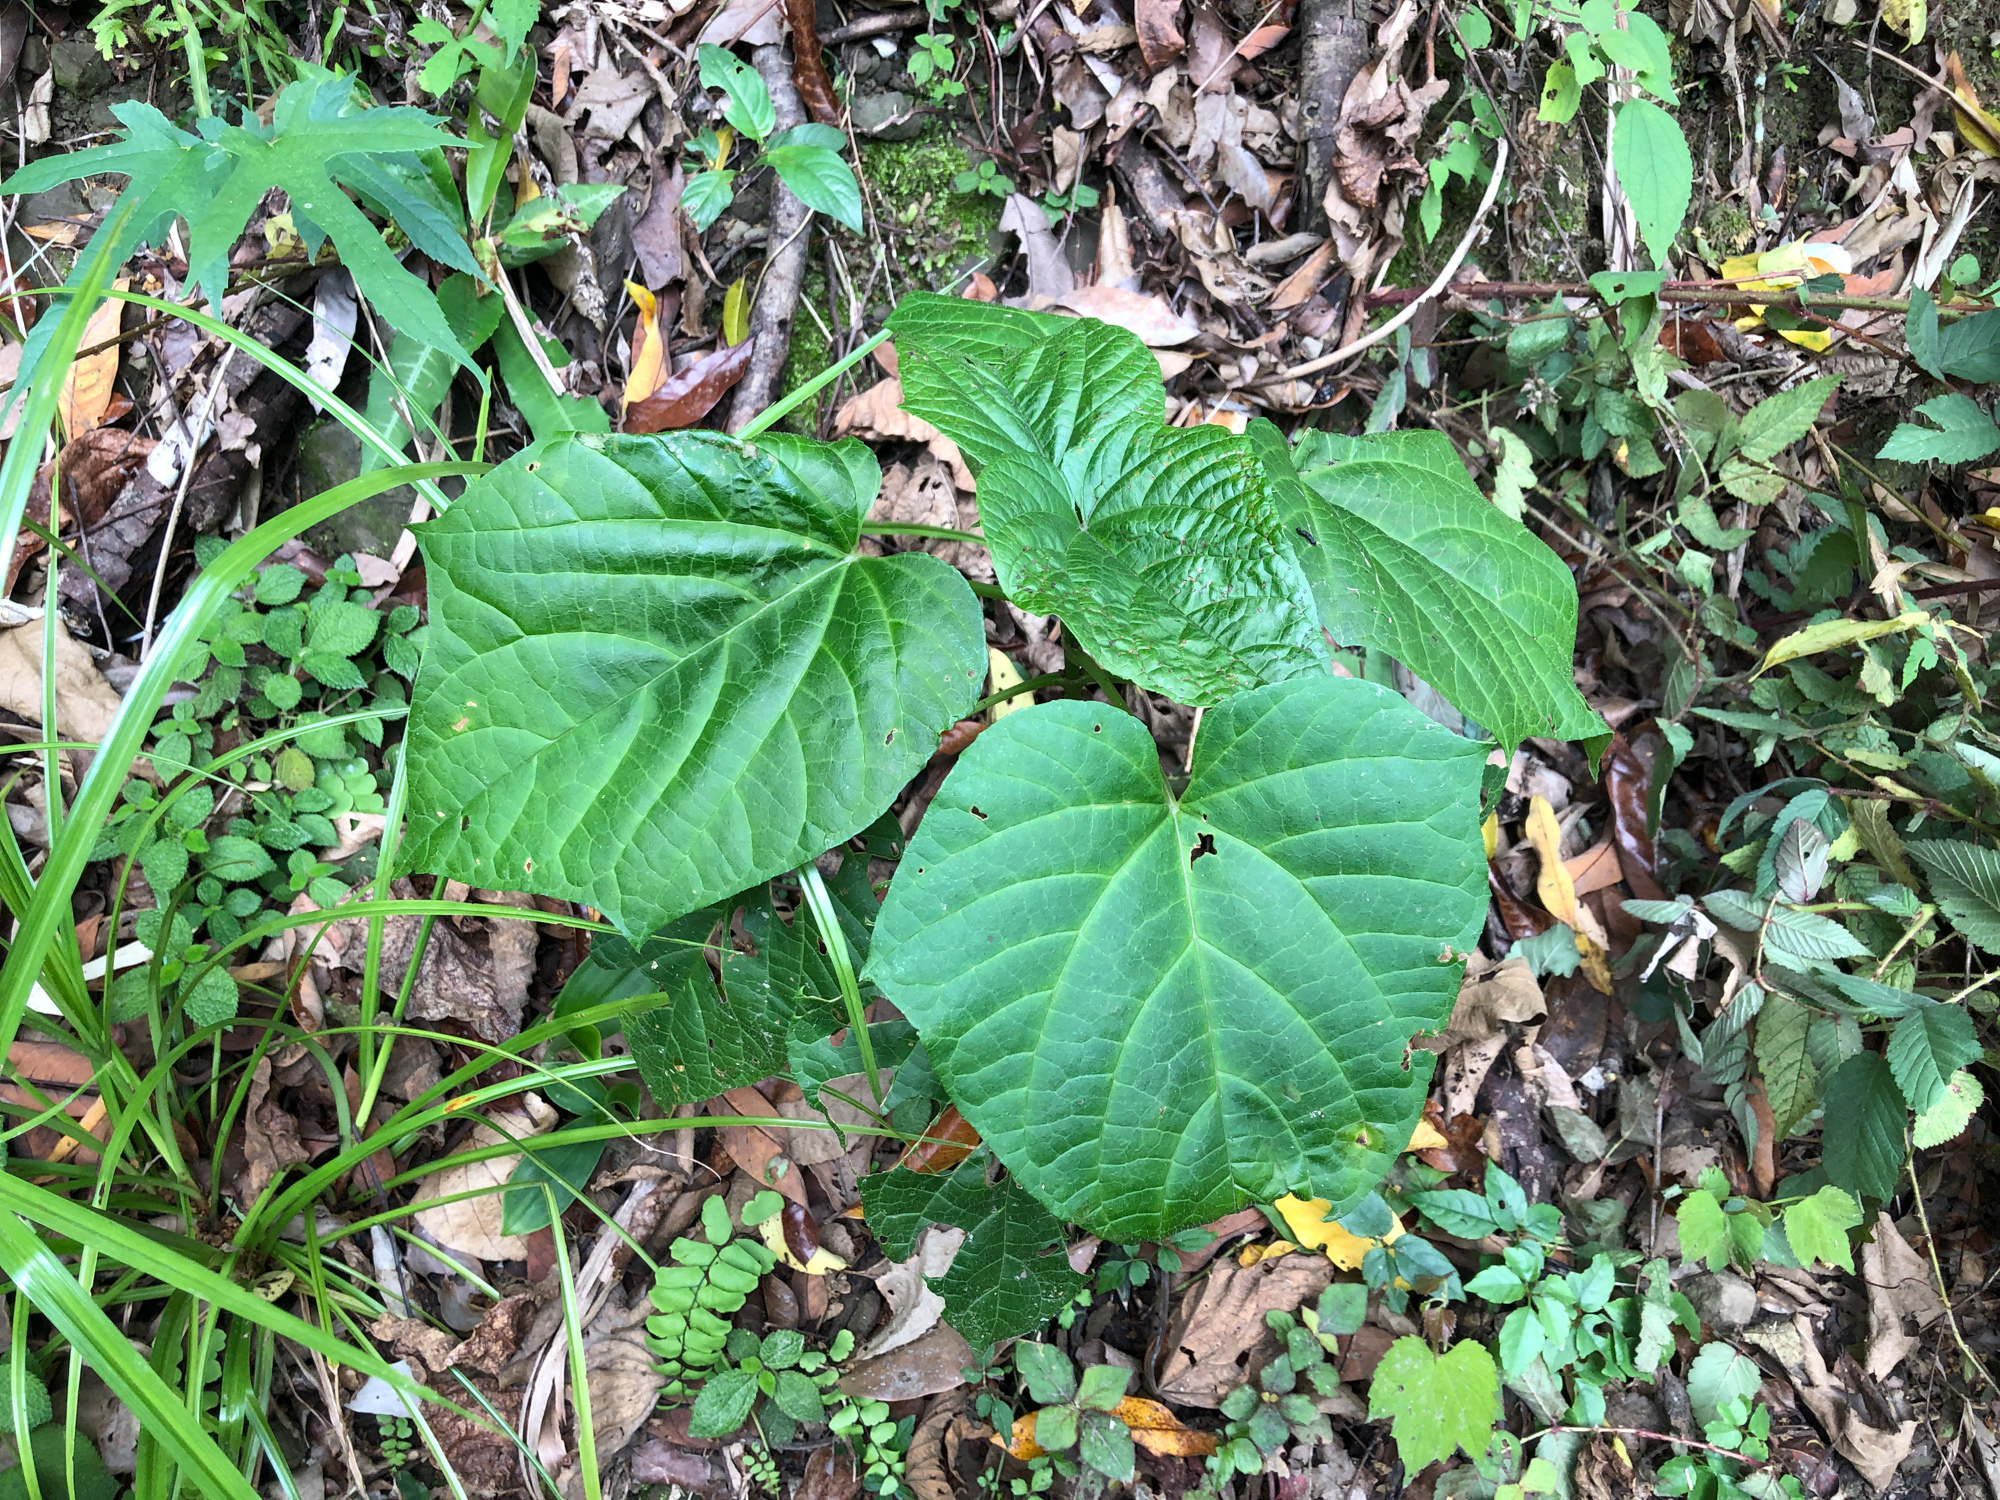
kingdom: Plantae
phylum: Tracheophyta
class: Magnoliopsida
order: Lamiales
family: Lamiaceae
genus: Clerodendrum
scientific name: Clerodendrum japonicum
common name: Japanese glorybower
